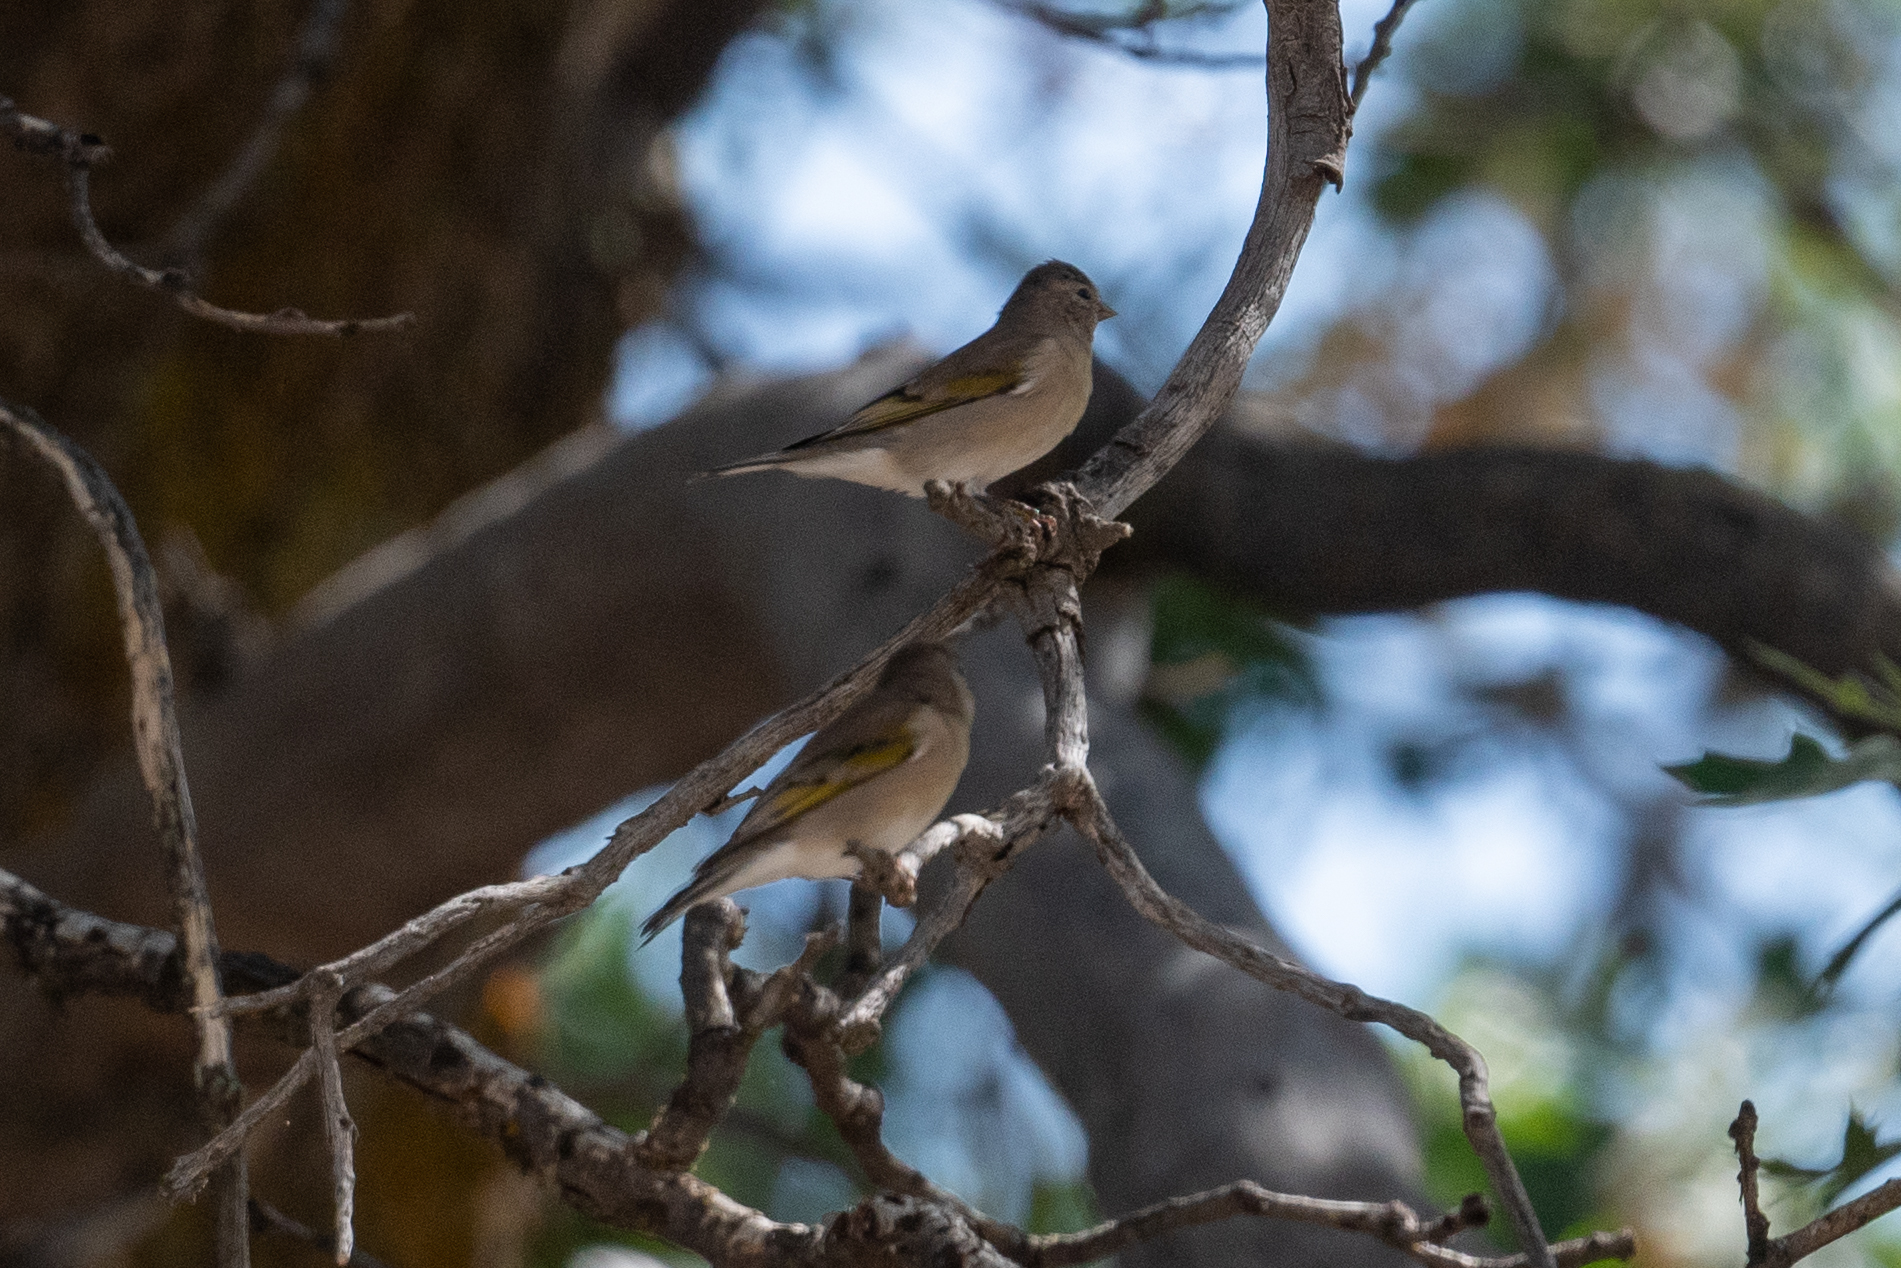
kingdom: Animalia
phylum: Chordata
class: Aves
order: Passeriformes
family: Fringillidae
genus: Spinus
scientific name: Spinus lawrencei
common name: Lawrence's goldfinch
